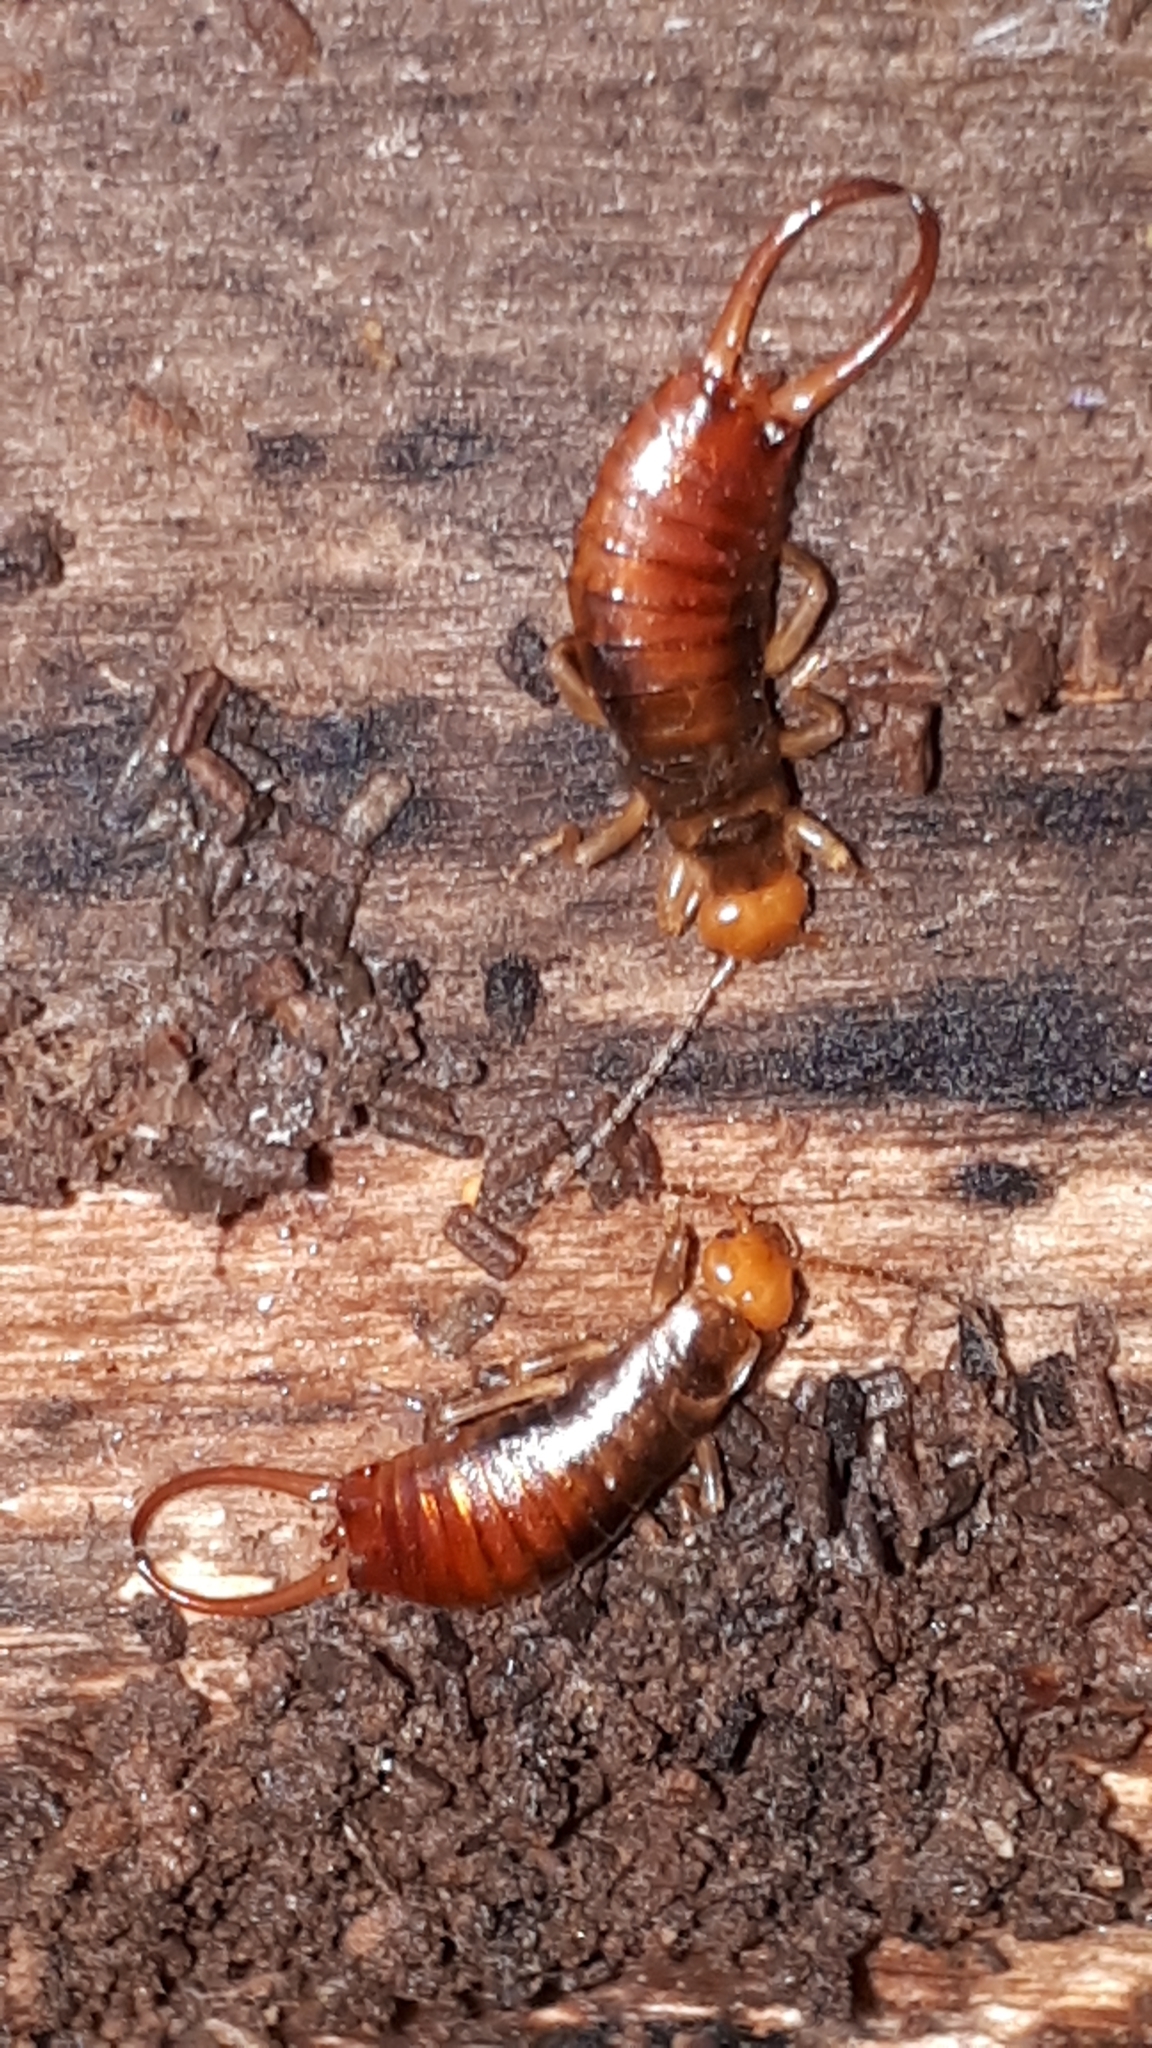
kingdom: Animalia
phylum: Arthropoda
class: Insecta
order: Dermaptera
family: Forficulidae
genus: Chelidurella
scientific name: Chelidurella acanthopygia
